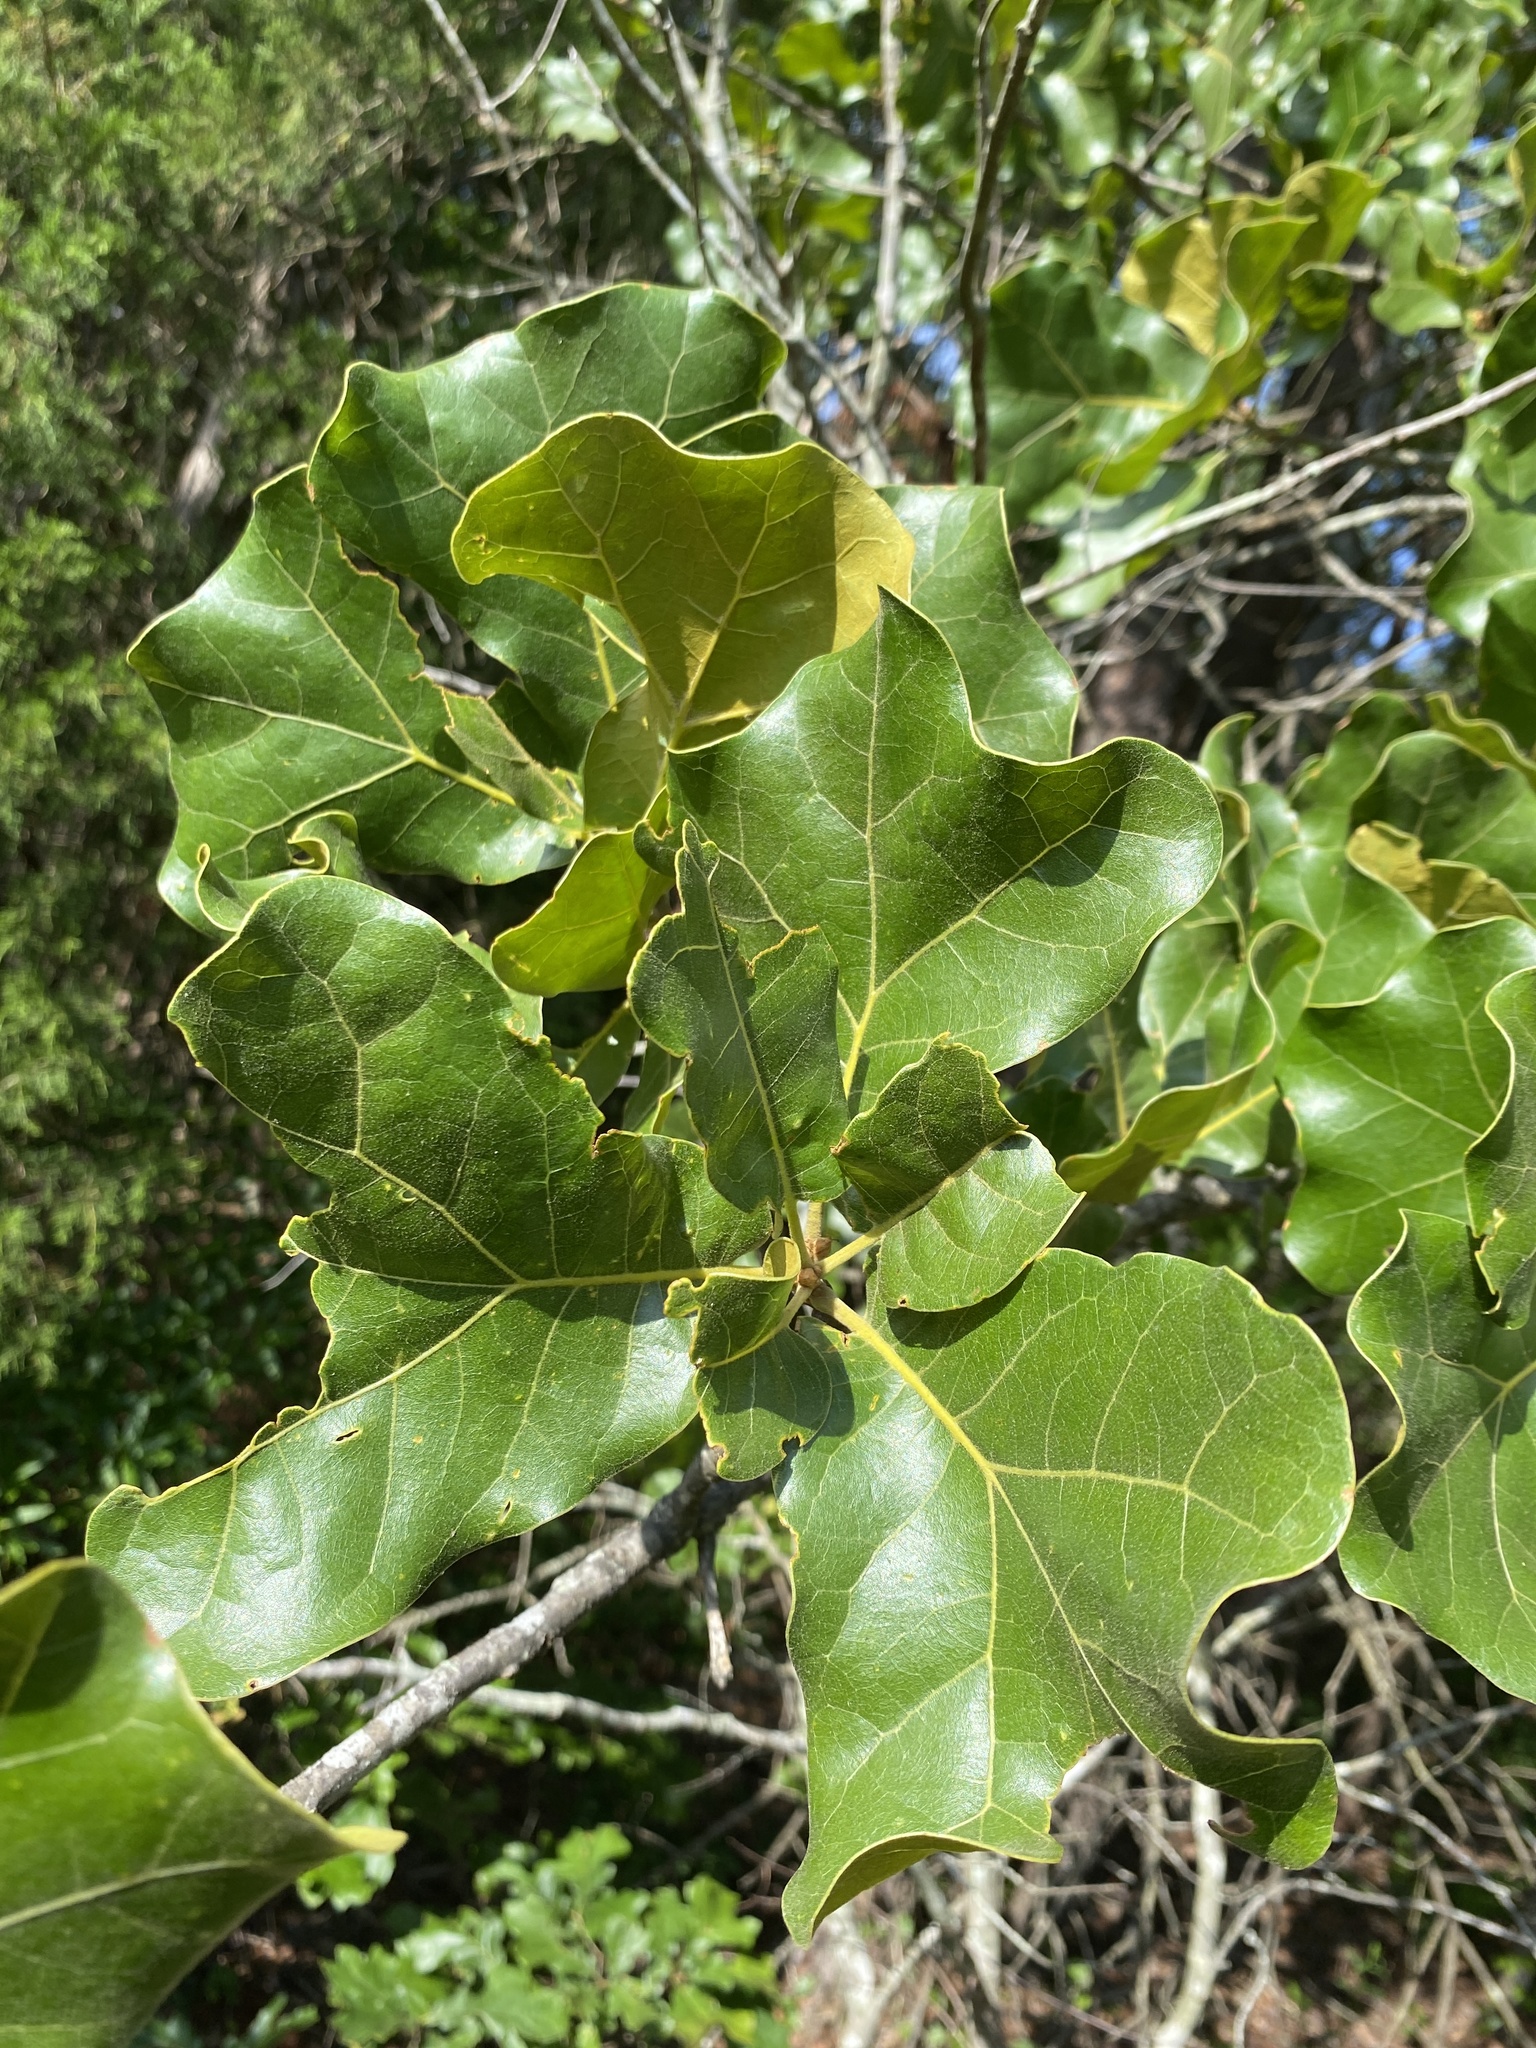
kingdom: Plantae
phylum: Tracheophyta
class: Magnoliopsida
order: Fagales
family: Fagaceae
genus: Quercus
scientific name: Quercus marilandica
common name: Blackjack oak
